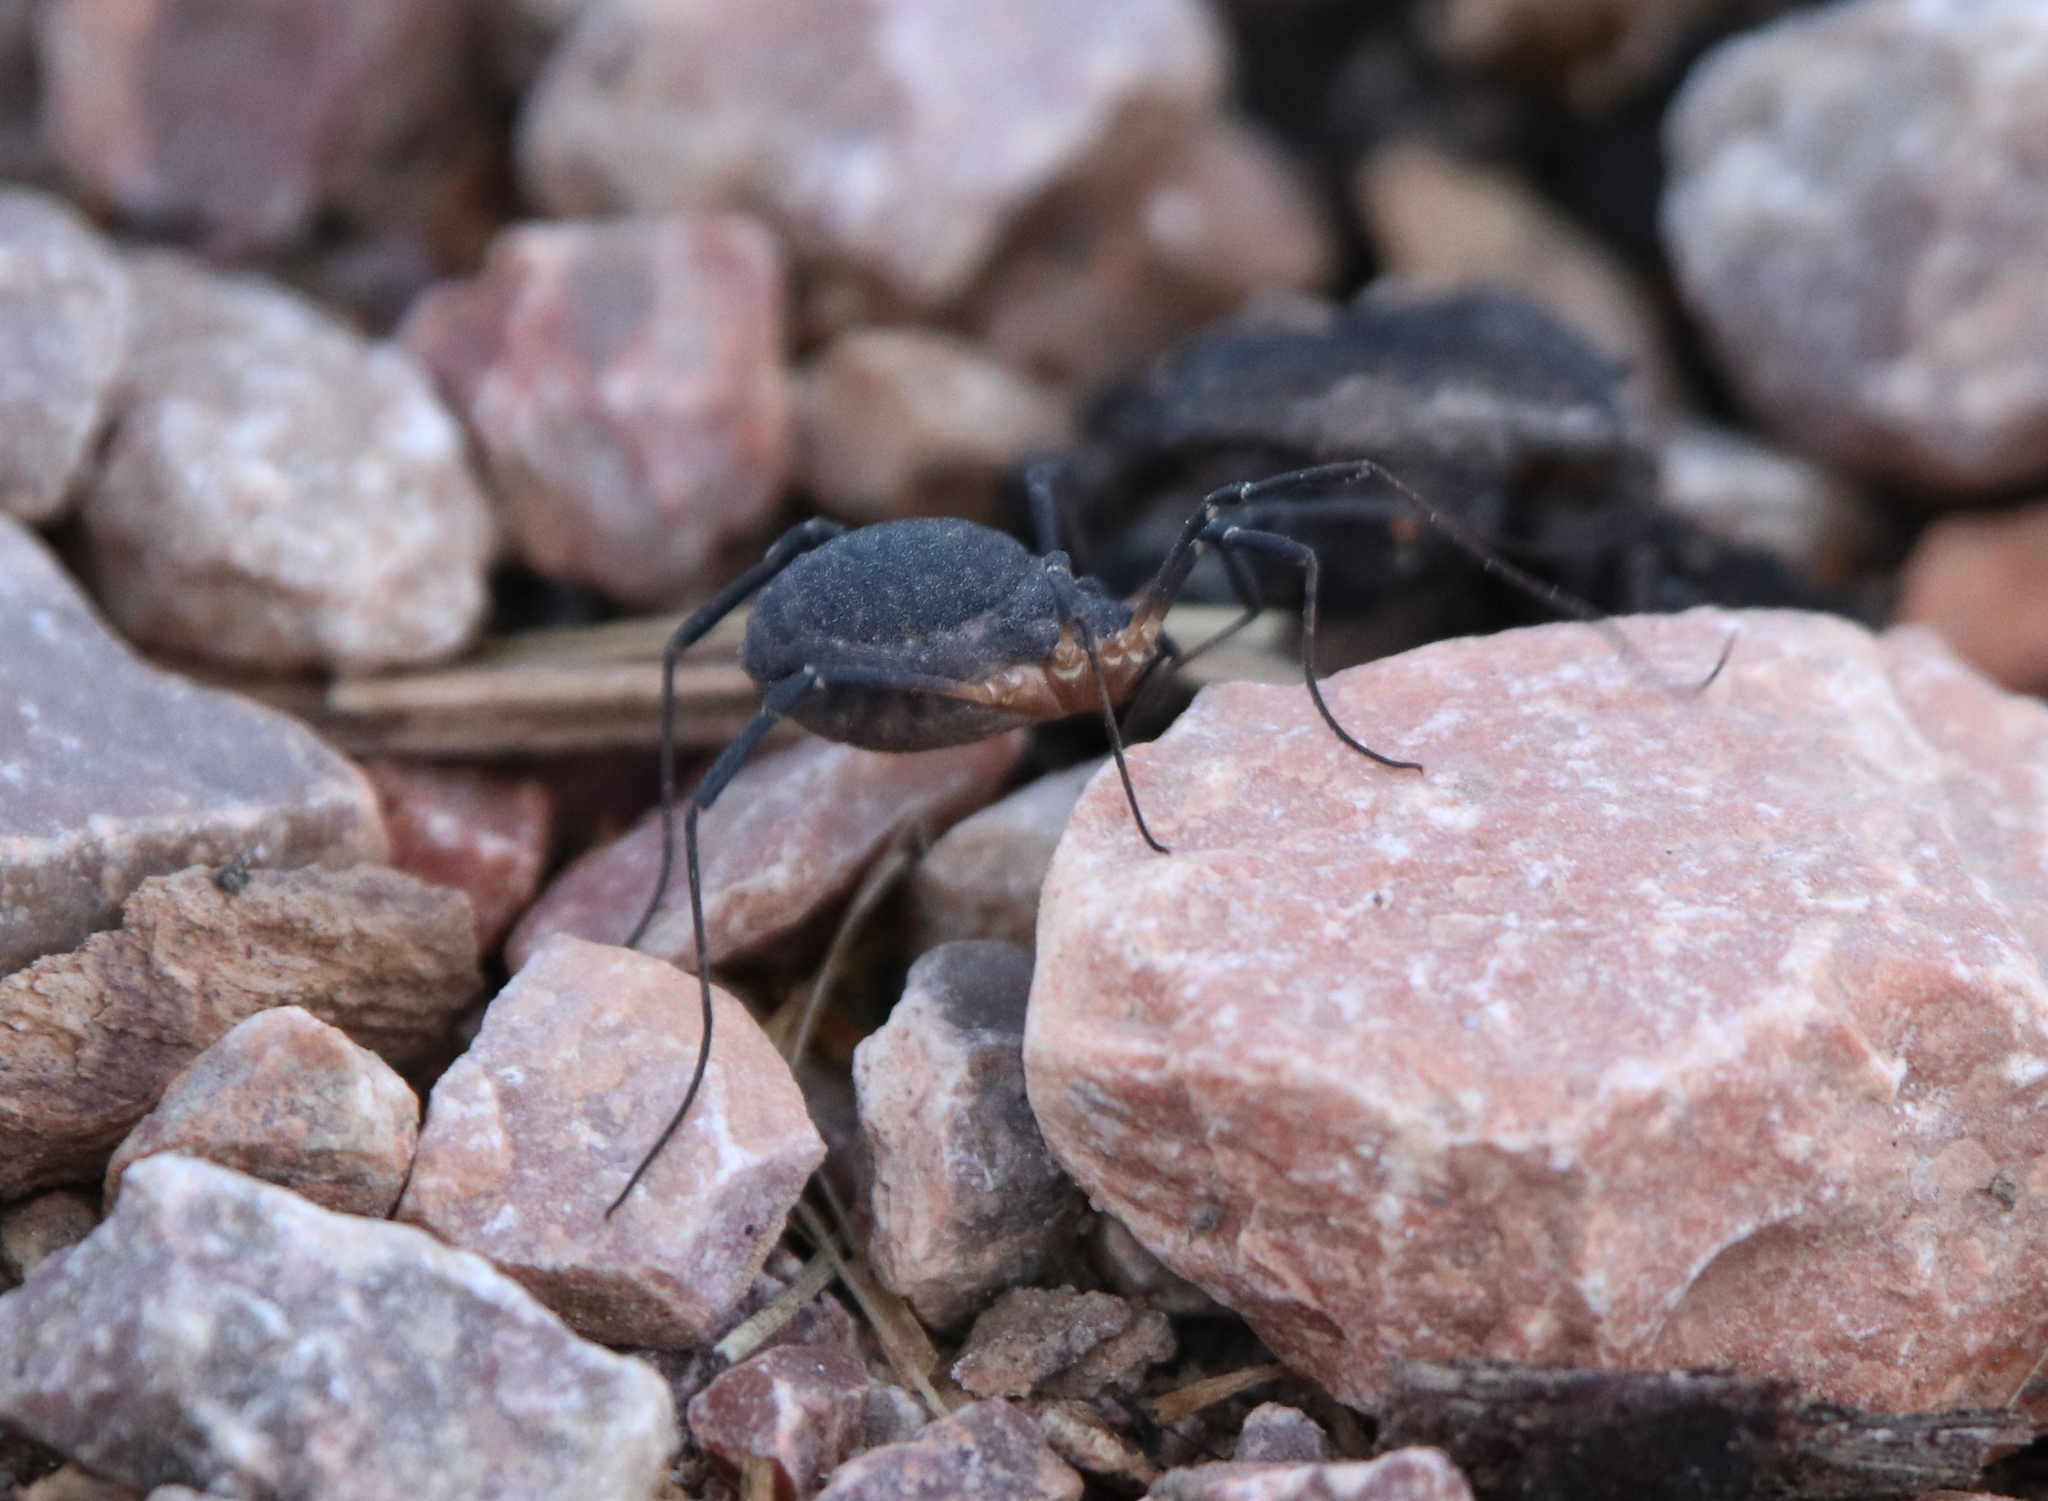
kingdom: Animalia
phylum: Arthropoda
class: Arachnida
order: Opiliones
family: Sclerosomatidae
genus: Eumesosoma
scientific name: Eumesosoma roeweri
